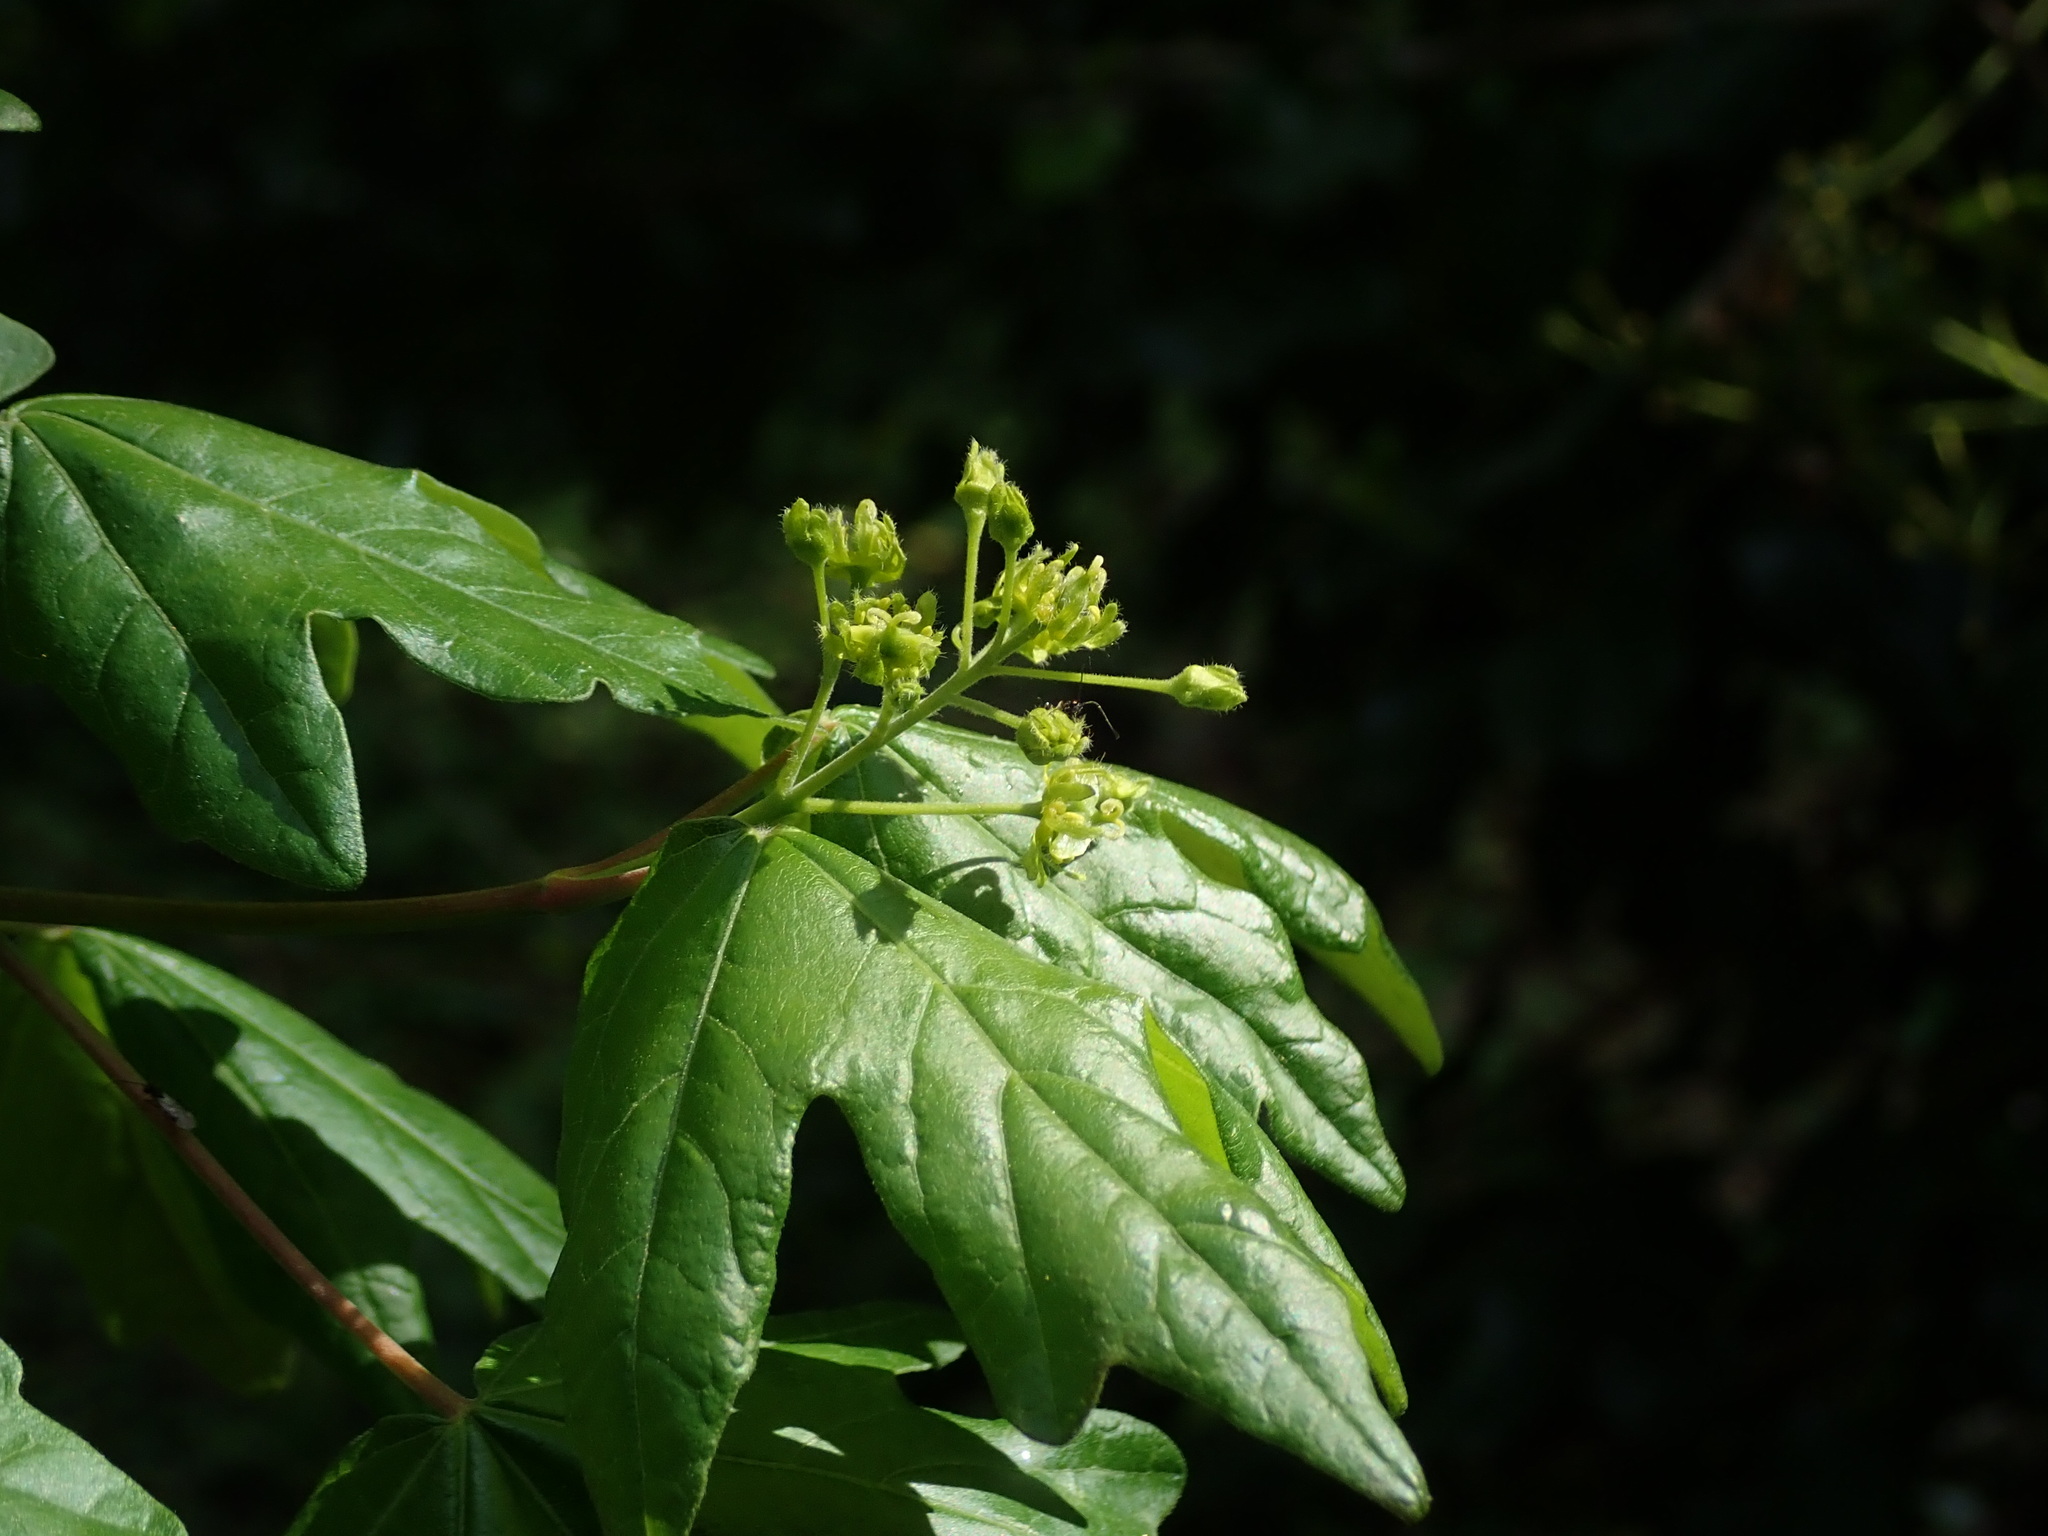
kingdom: Plantae
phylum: Tracheophyta
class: Magnoliopsida
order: Sapindales
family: Sapindaceae
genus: Acer
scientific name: Acer campestre
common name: Field maple
